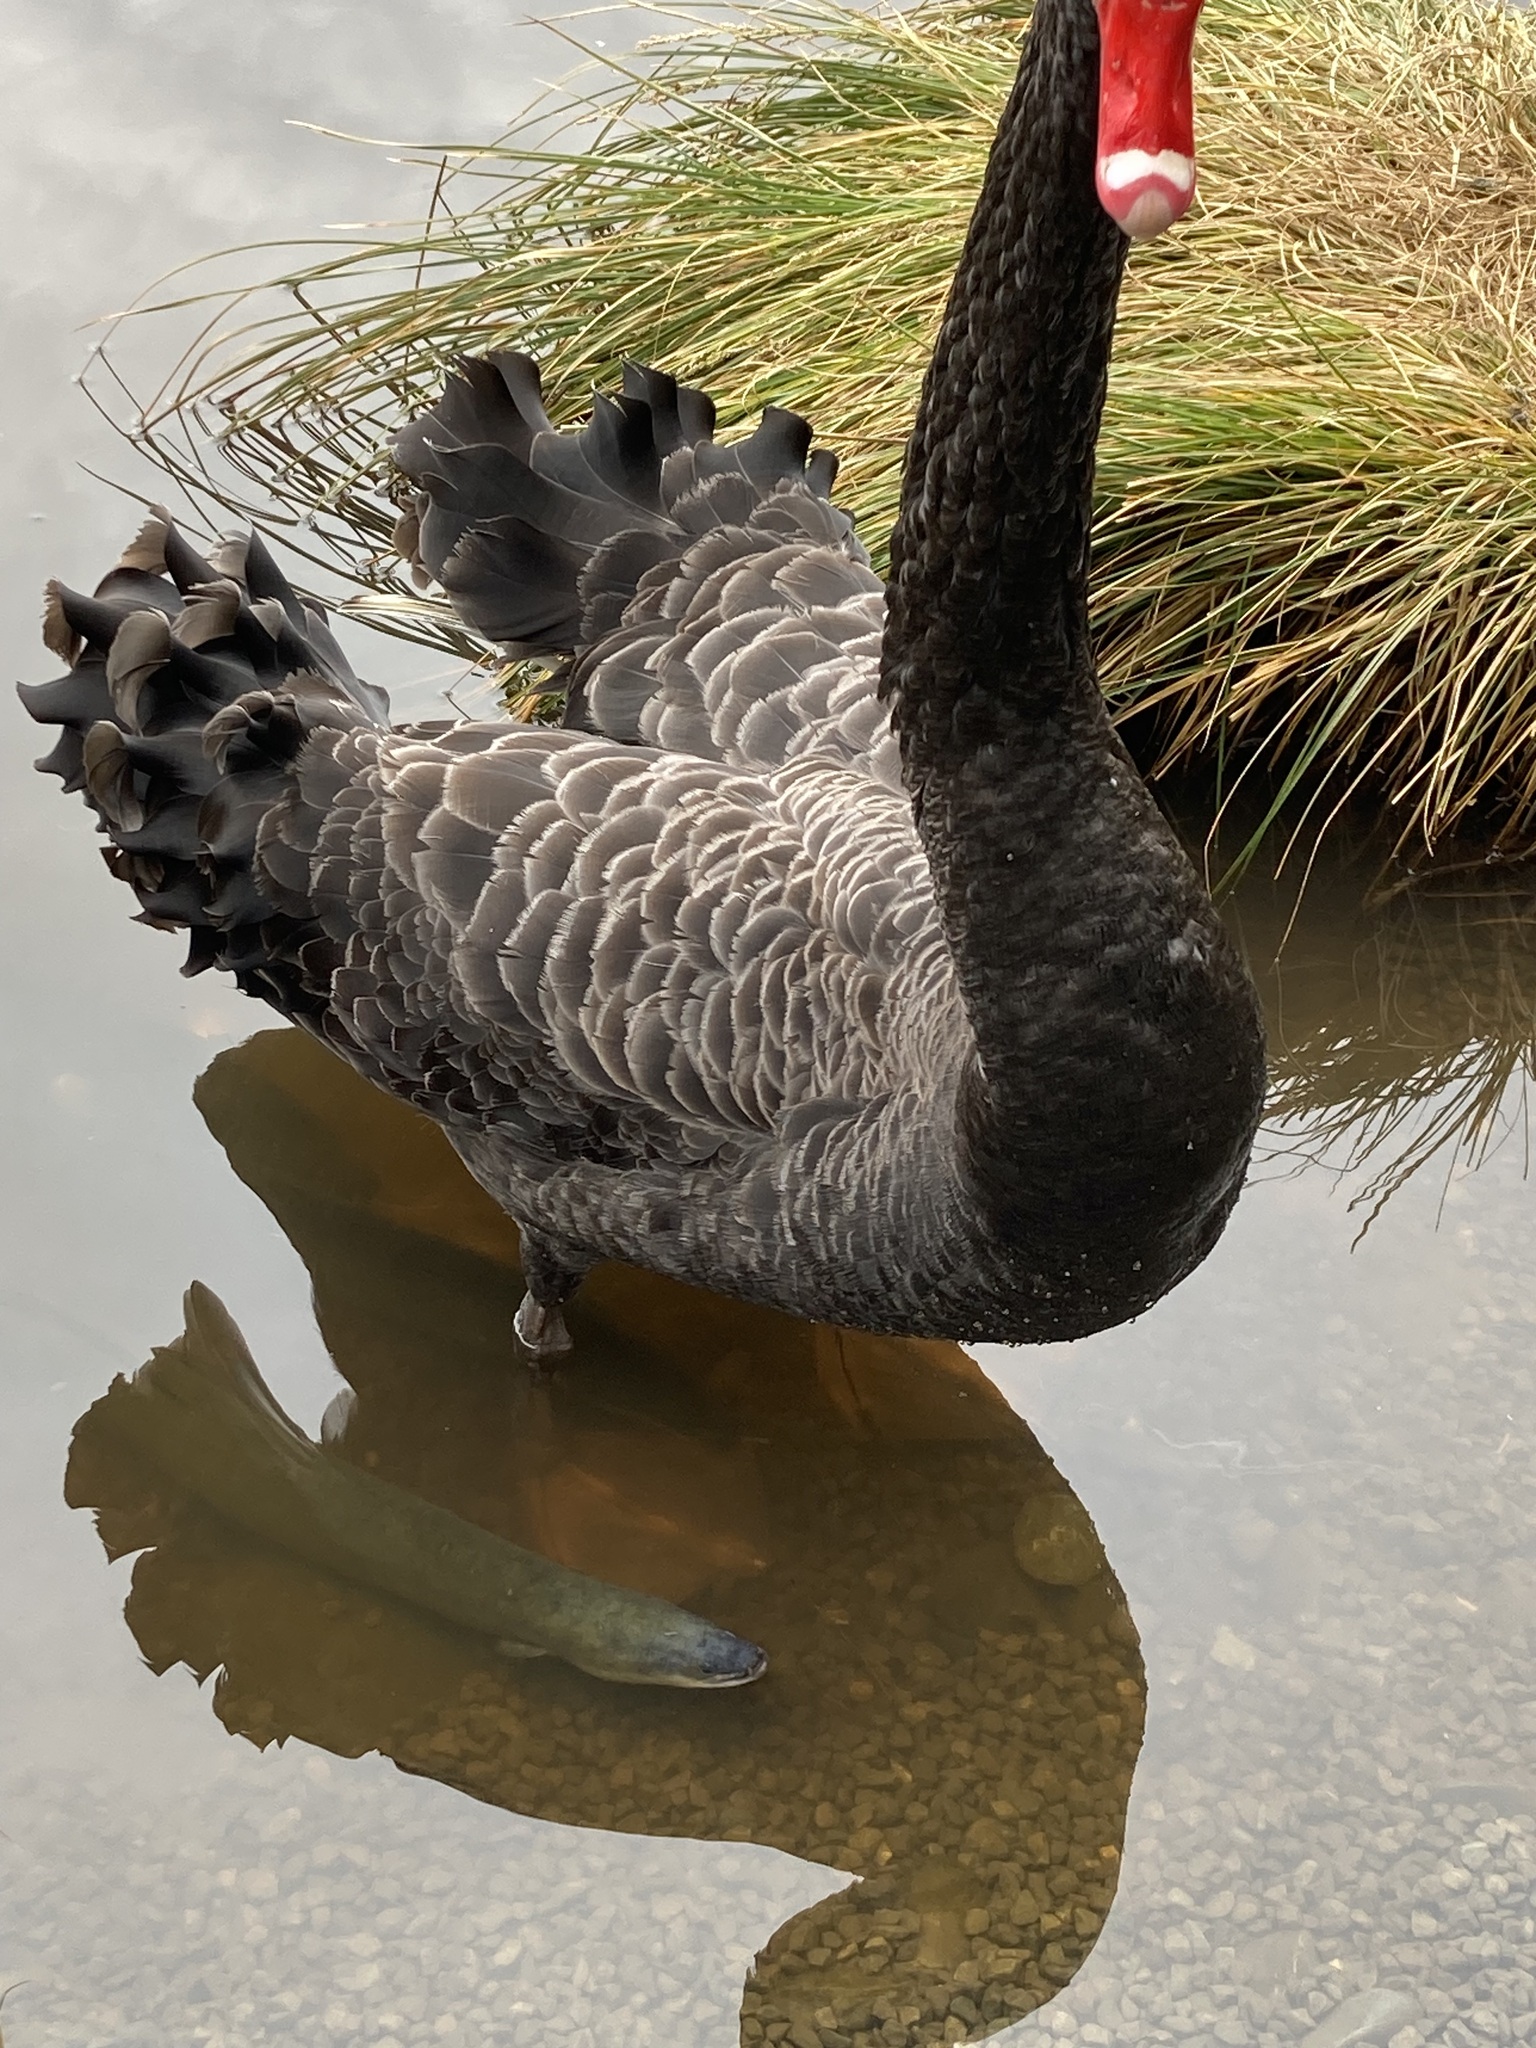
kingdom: Animalia
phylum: Chordata
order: Anguilliformes
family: Anguillidae
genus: Anguilla
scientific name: Anguilla australis
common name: Shortfin eel
